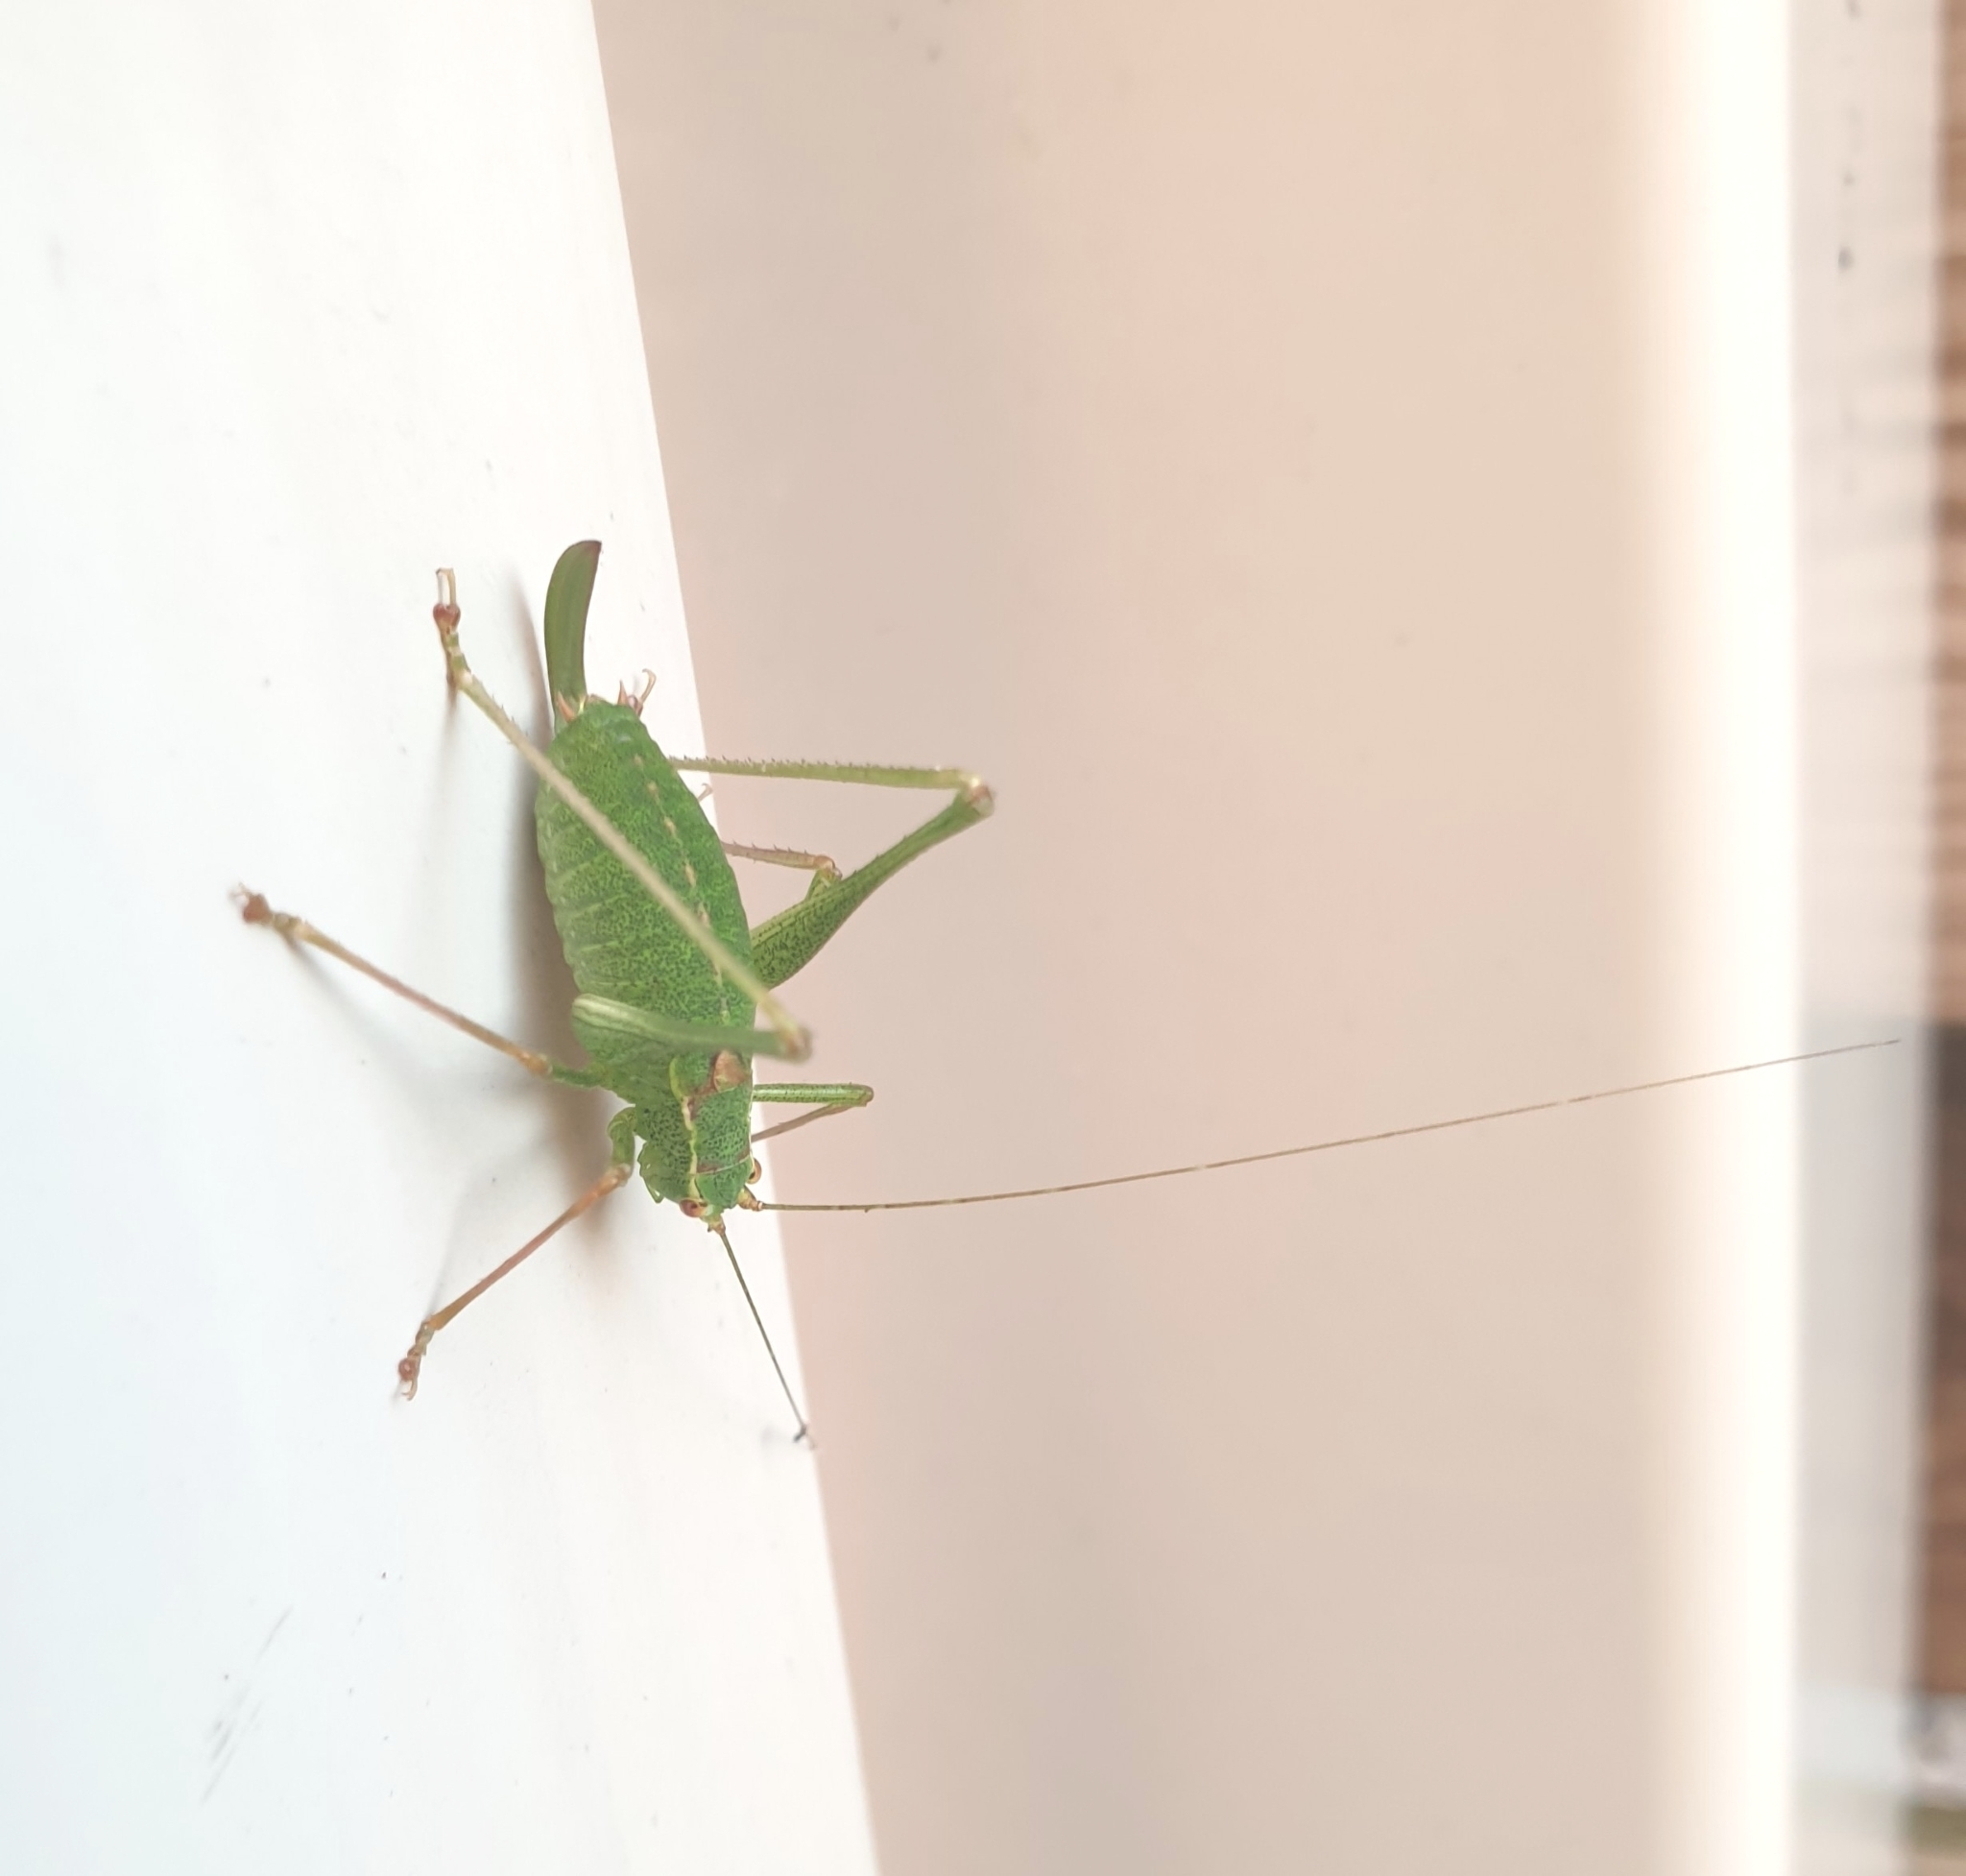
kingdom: Animalia
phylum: Arthropoda
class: Insecta
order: Orthoptera
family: Tettigoniidae
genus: Leptophyes
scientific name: Leptophyes punctatissima
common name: Speckled bush-cricket
